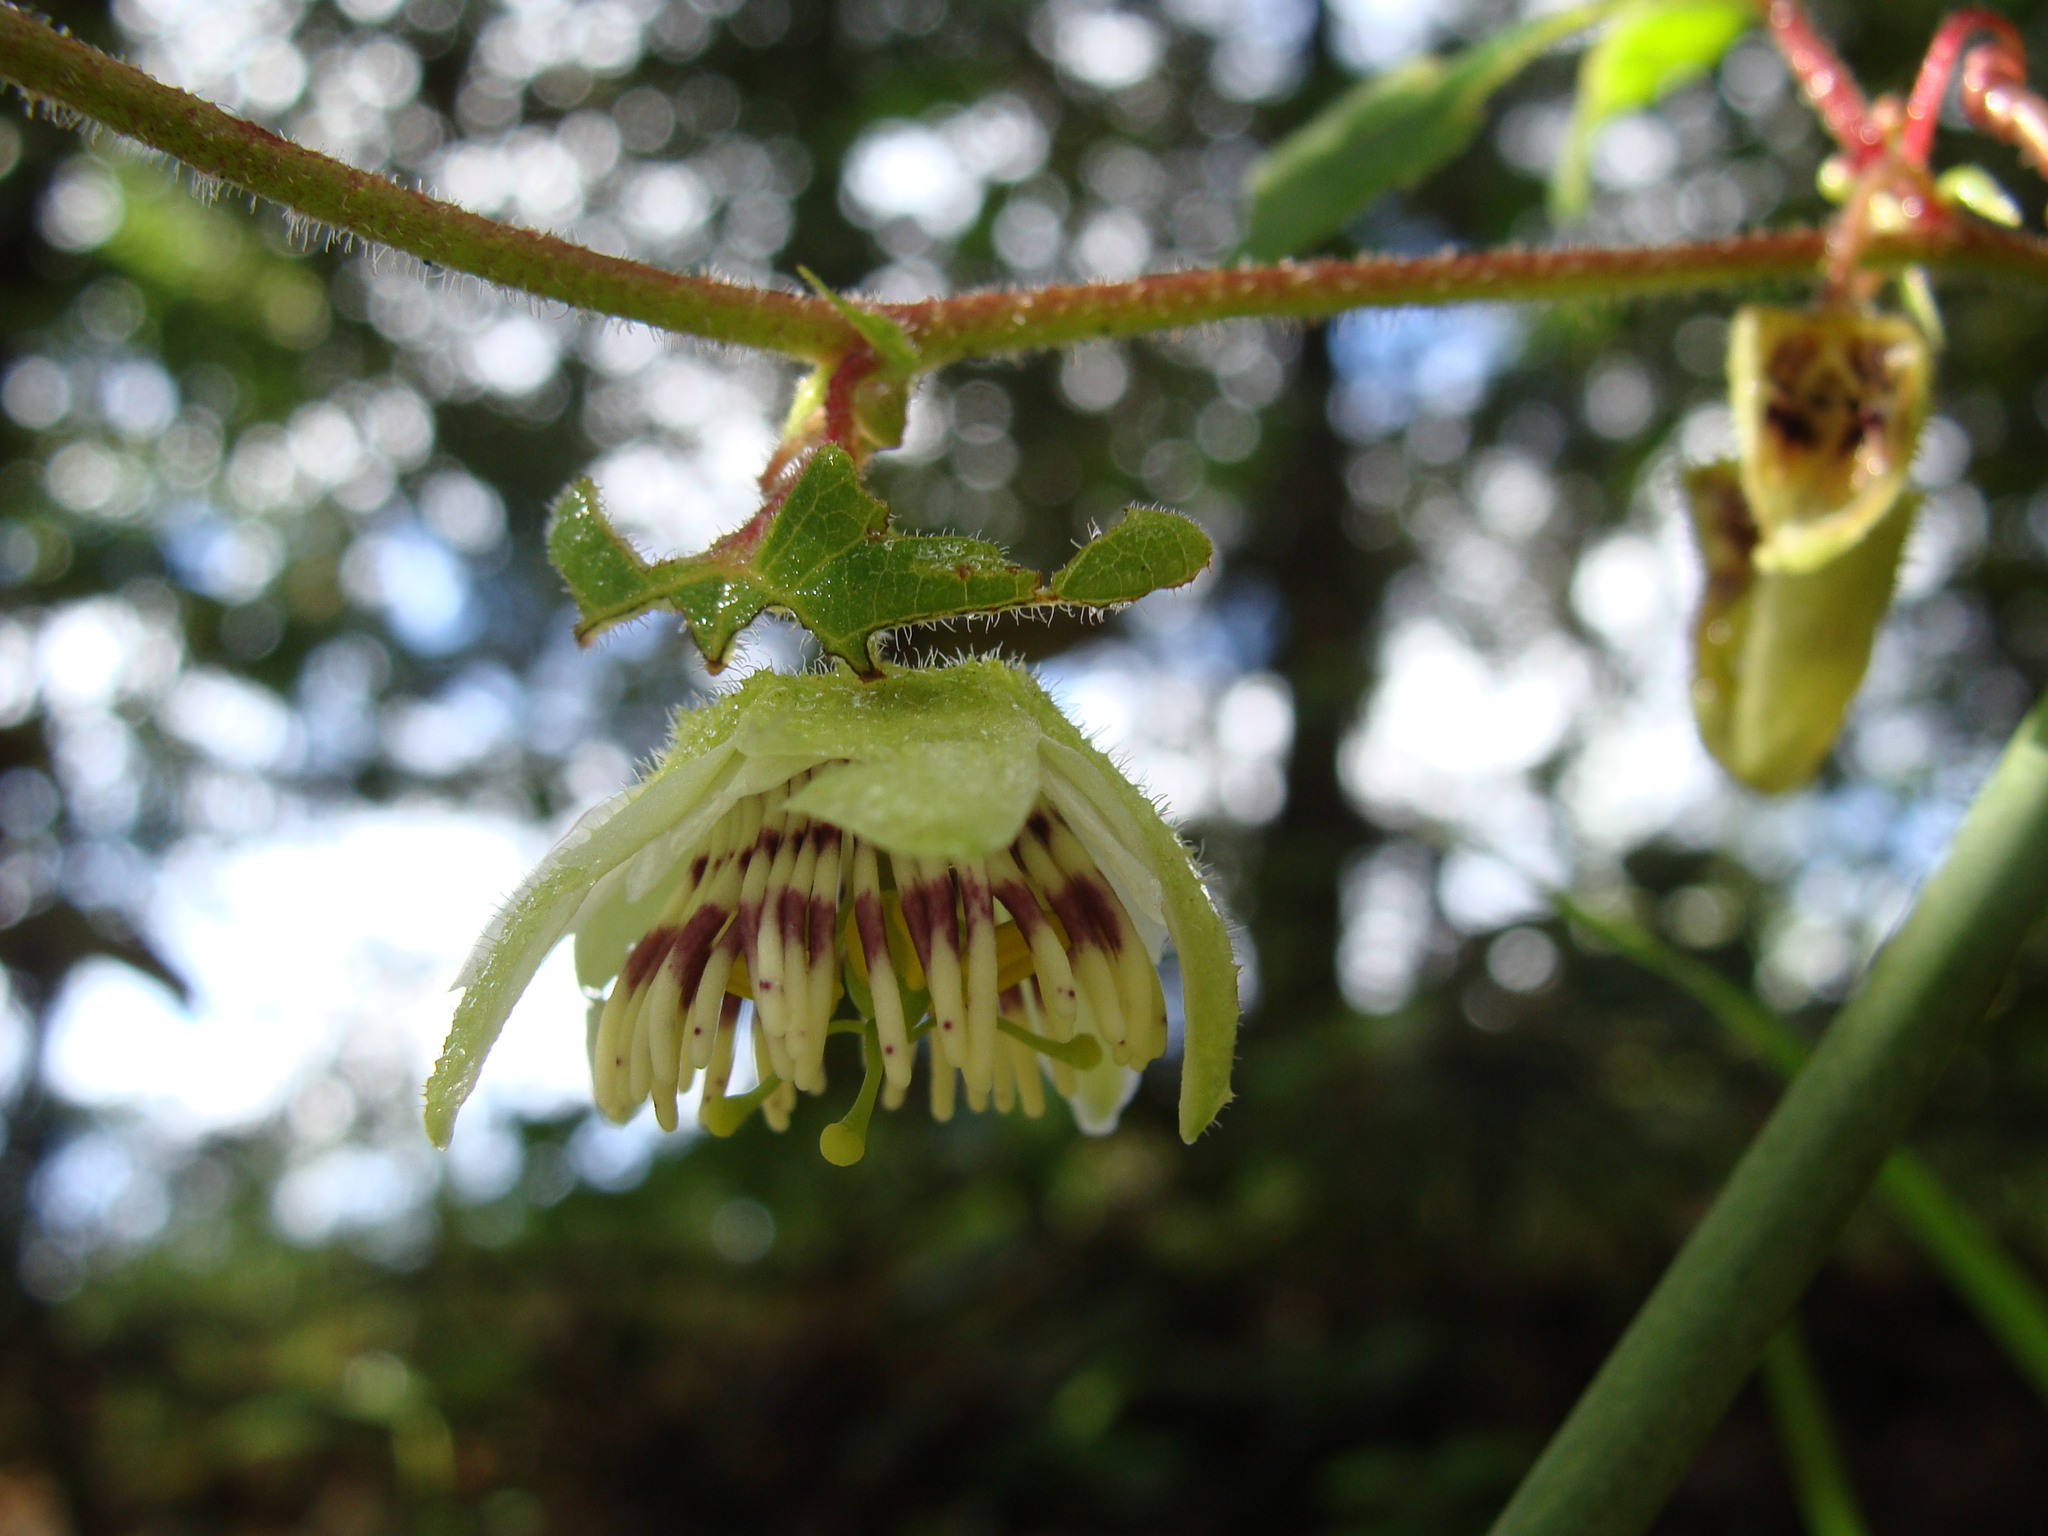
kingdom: Plantae
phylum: Tracheophyta
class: Magnoliopsida
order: Malpighiales
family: Passifloraceae
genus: Passiflora
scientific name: Passiflora pilosa
